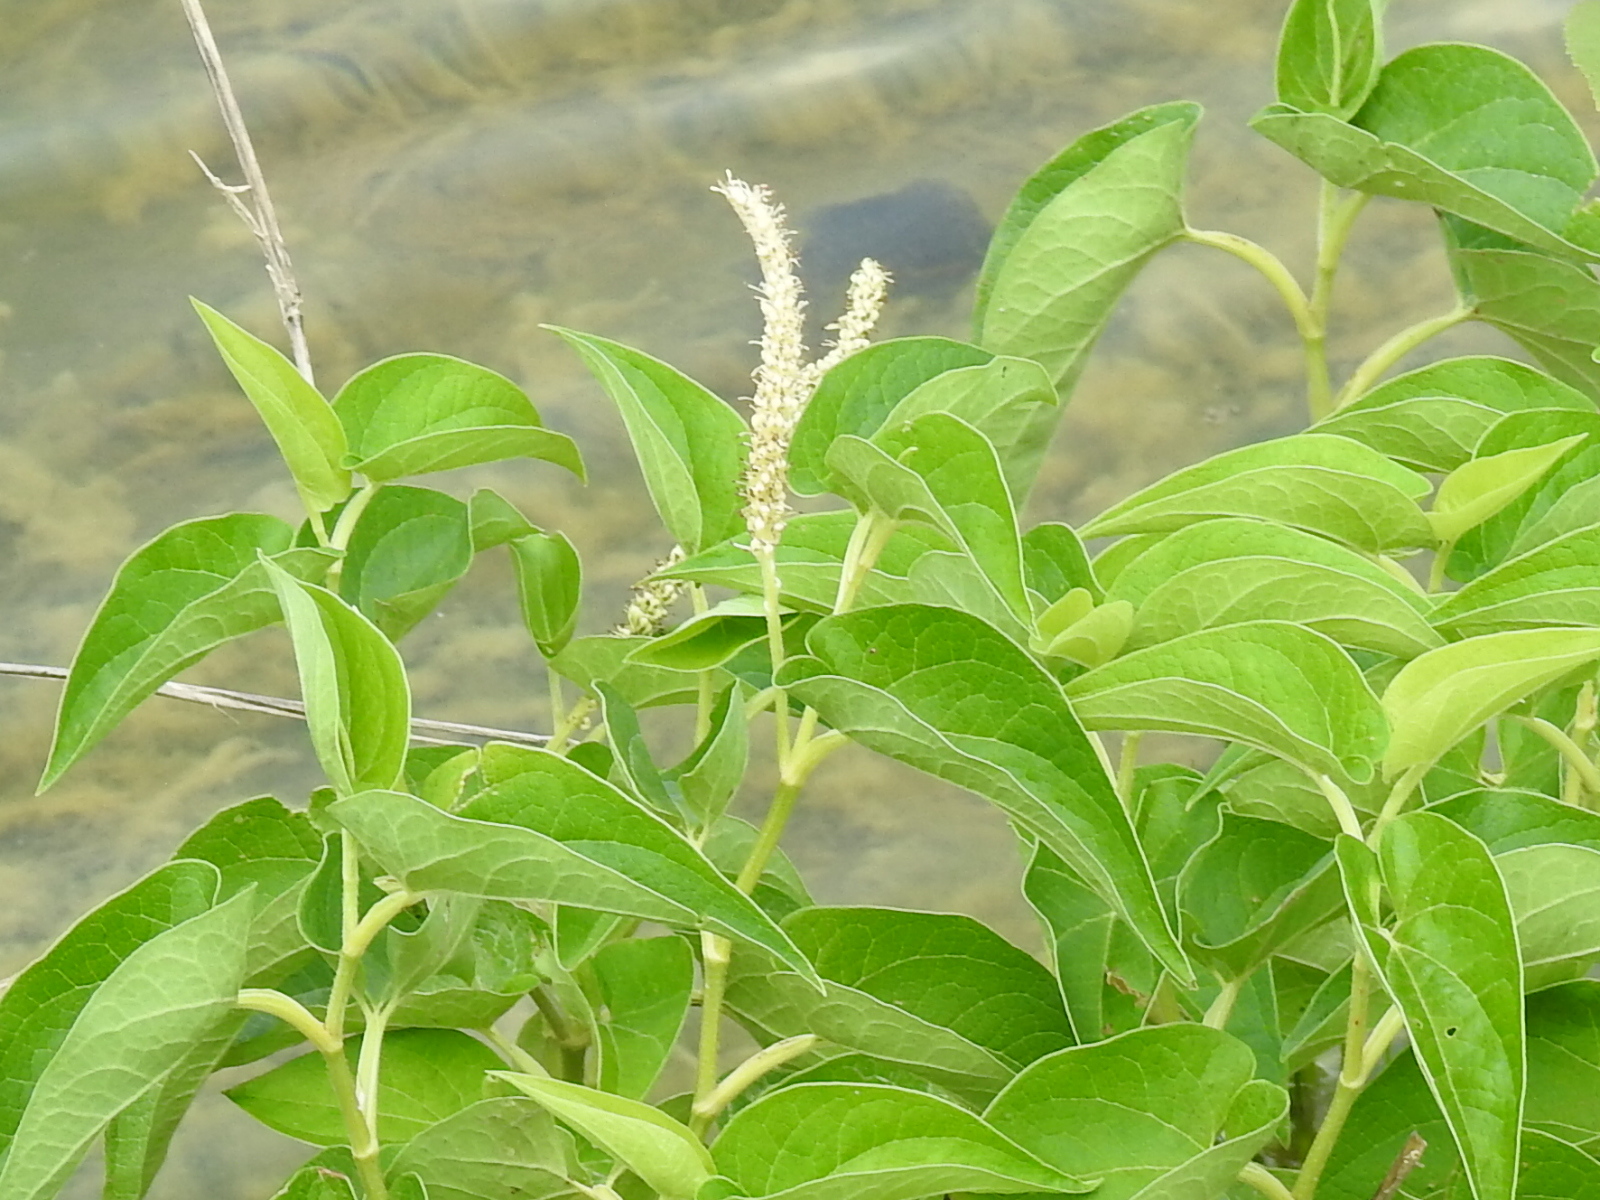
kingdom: Plantae
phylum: Tracheophyta
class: Magnoliopsida
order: Piperales
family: Saururaceae
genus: Saururus
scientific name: Saururus cernuus
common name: Lizard's-tail
